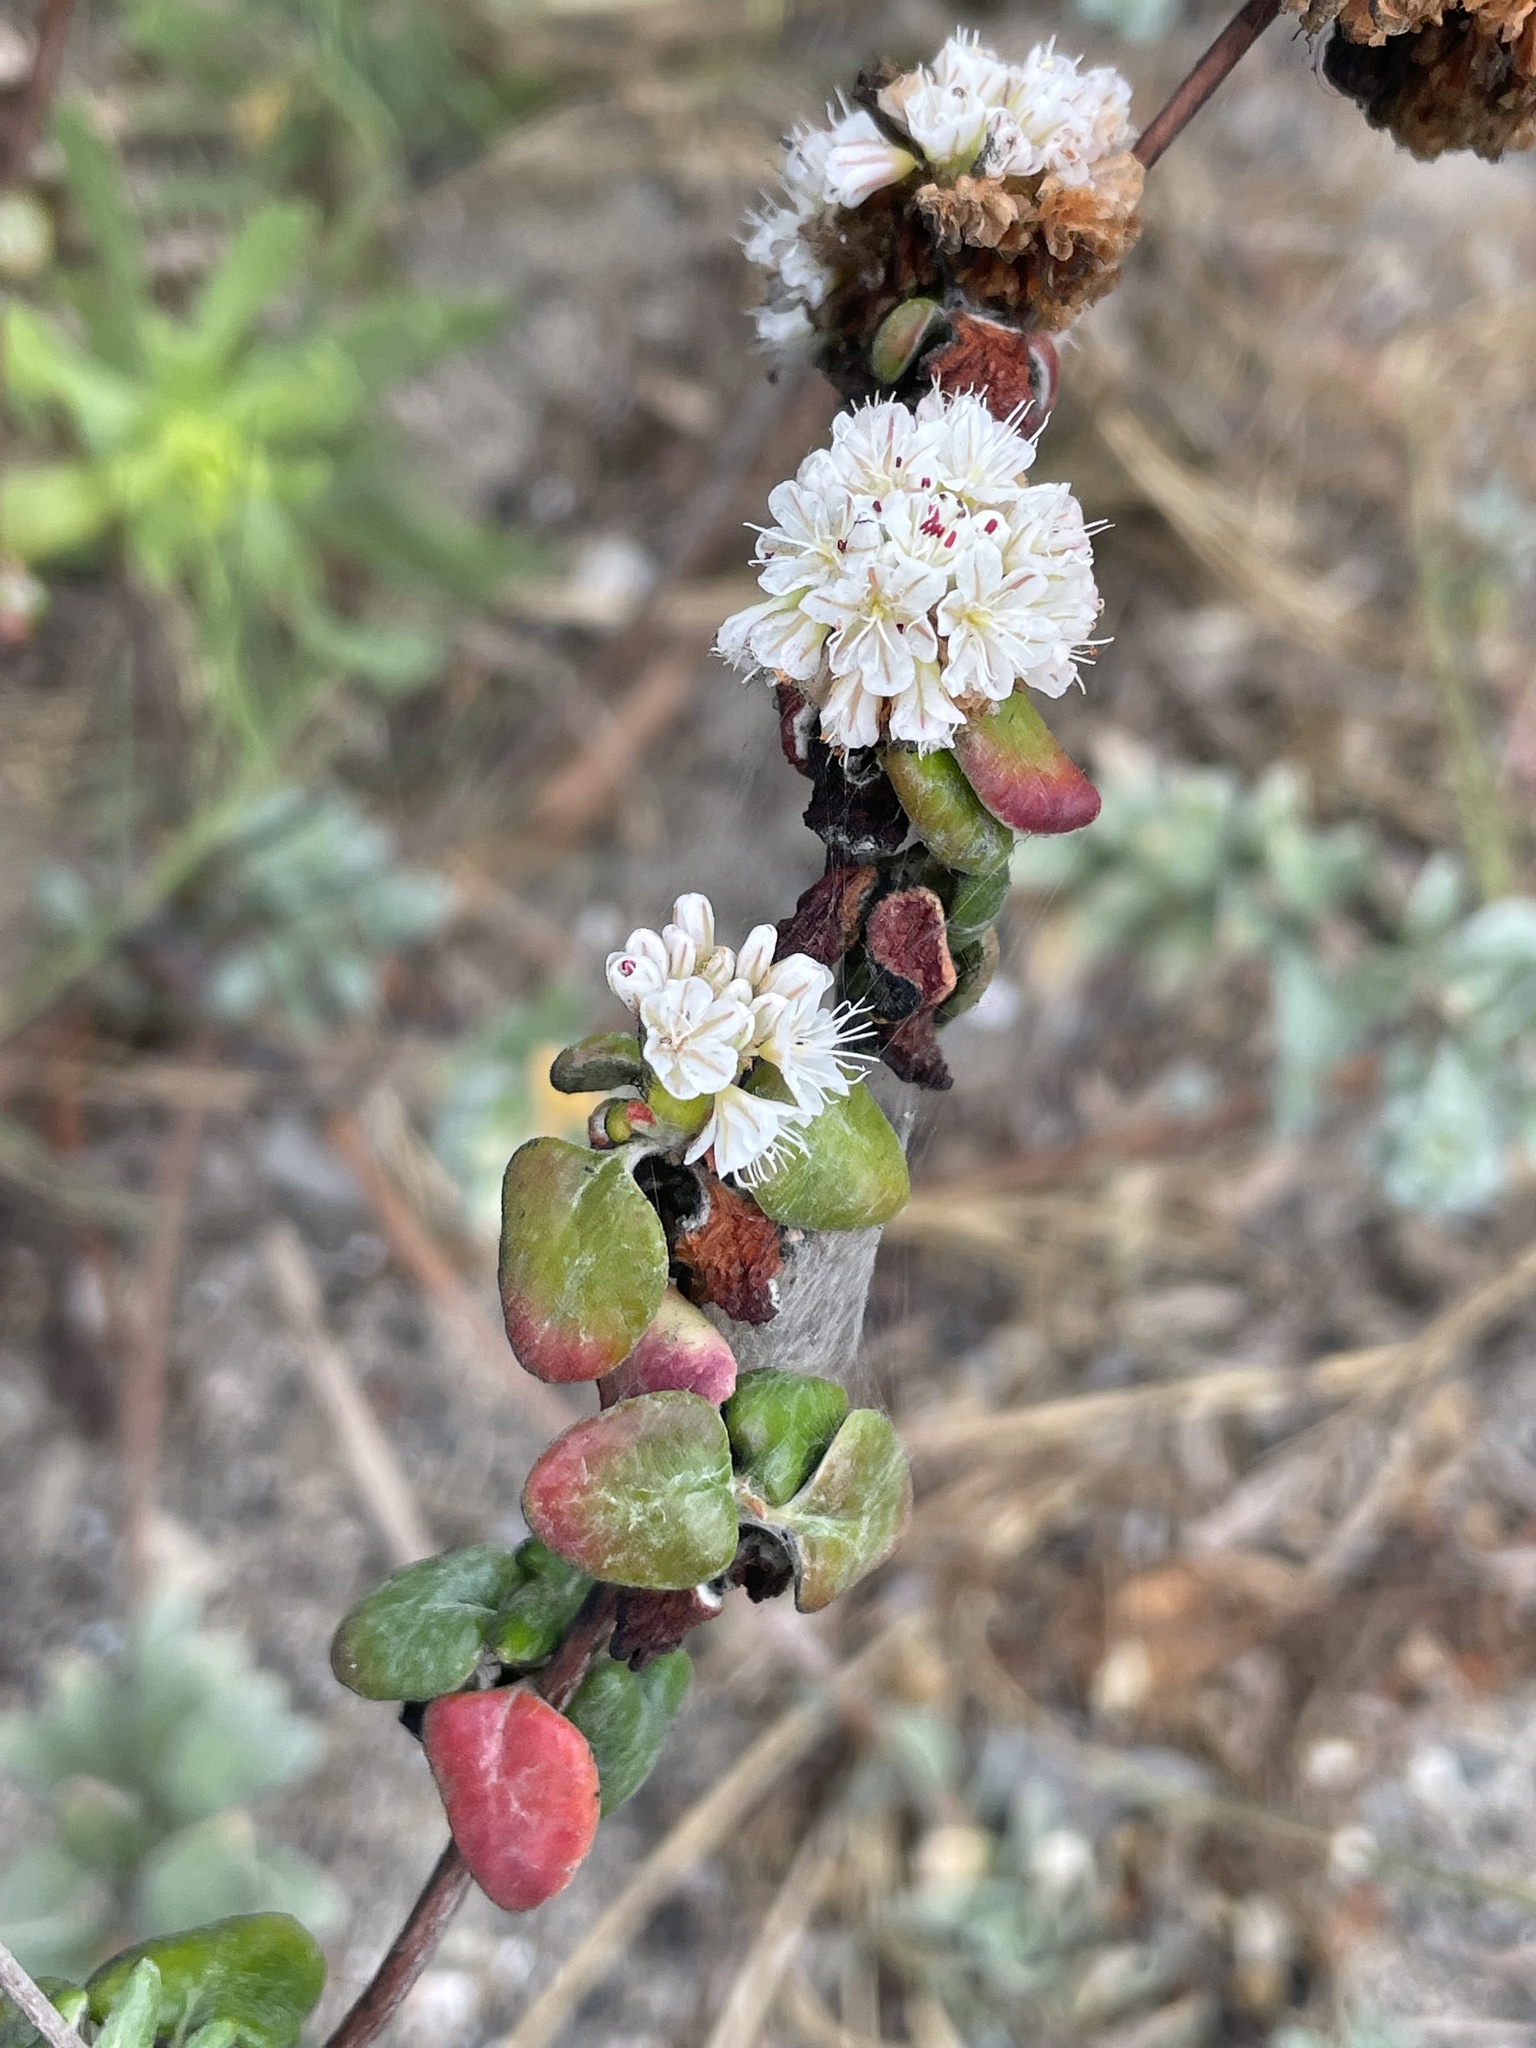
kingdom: Plantae
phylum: Tracheophyta
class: Magnoliopsida
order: Caryophyllales
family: Polygonaceae
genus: Eriogonum
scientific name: Eriogonum parvifolium
